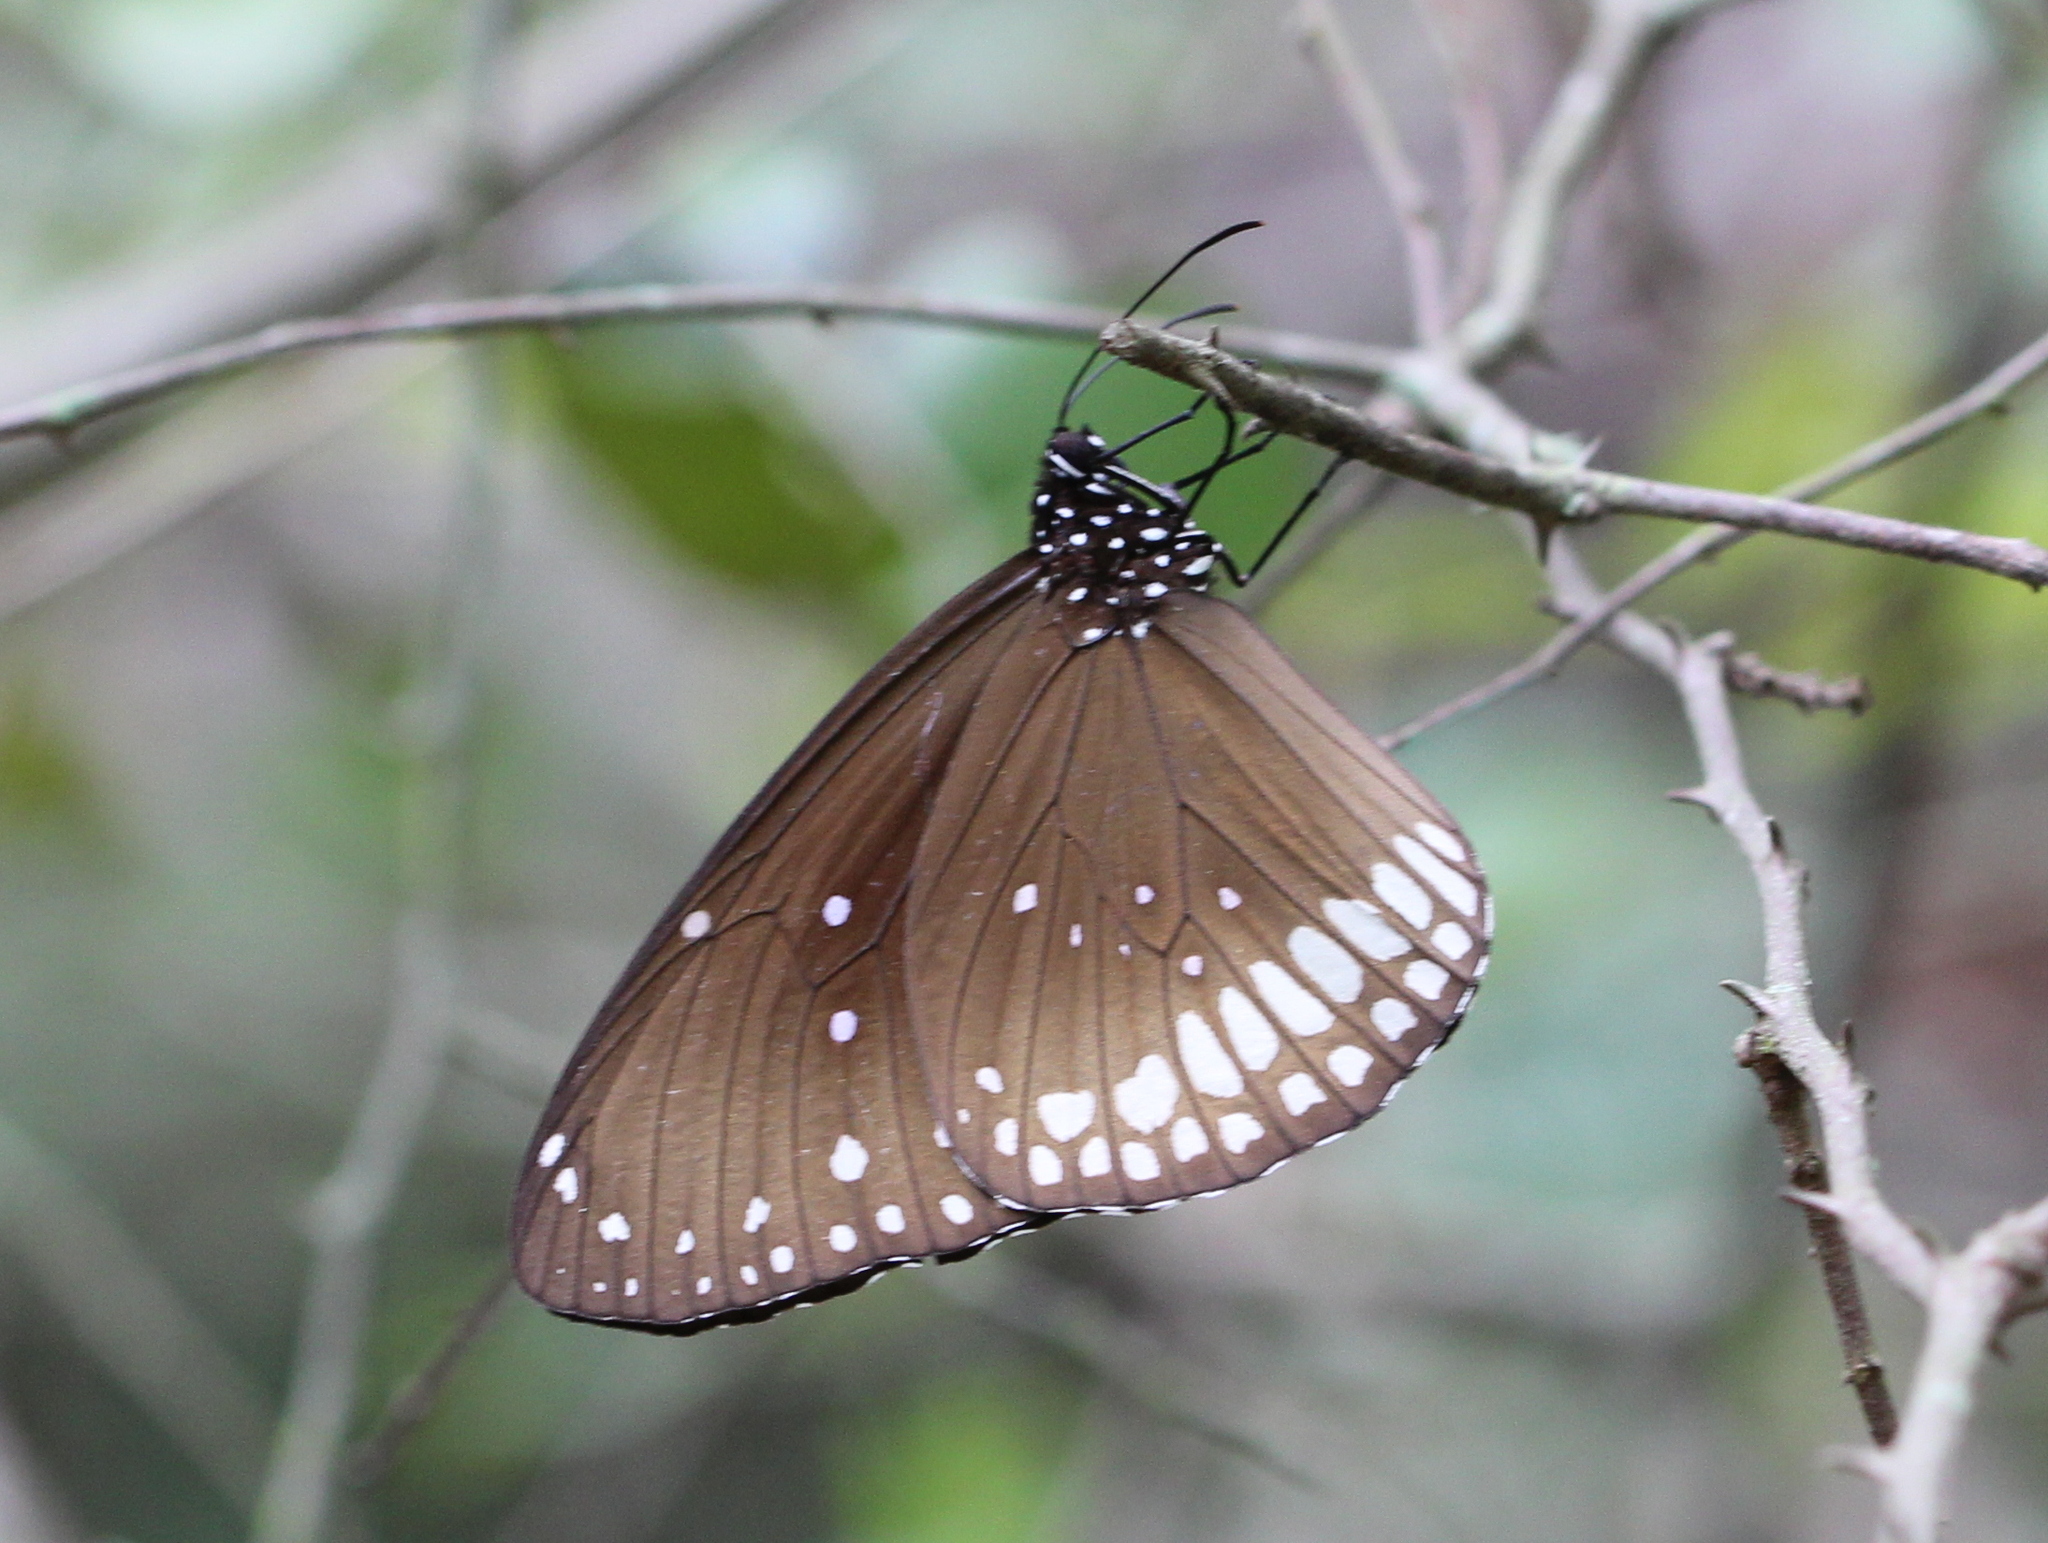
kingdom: Animalia
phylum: Arthropoda
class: Insecta
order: Lepidoptera
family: Nymphalidae
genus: Euploea
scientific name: Euploea core
